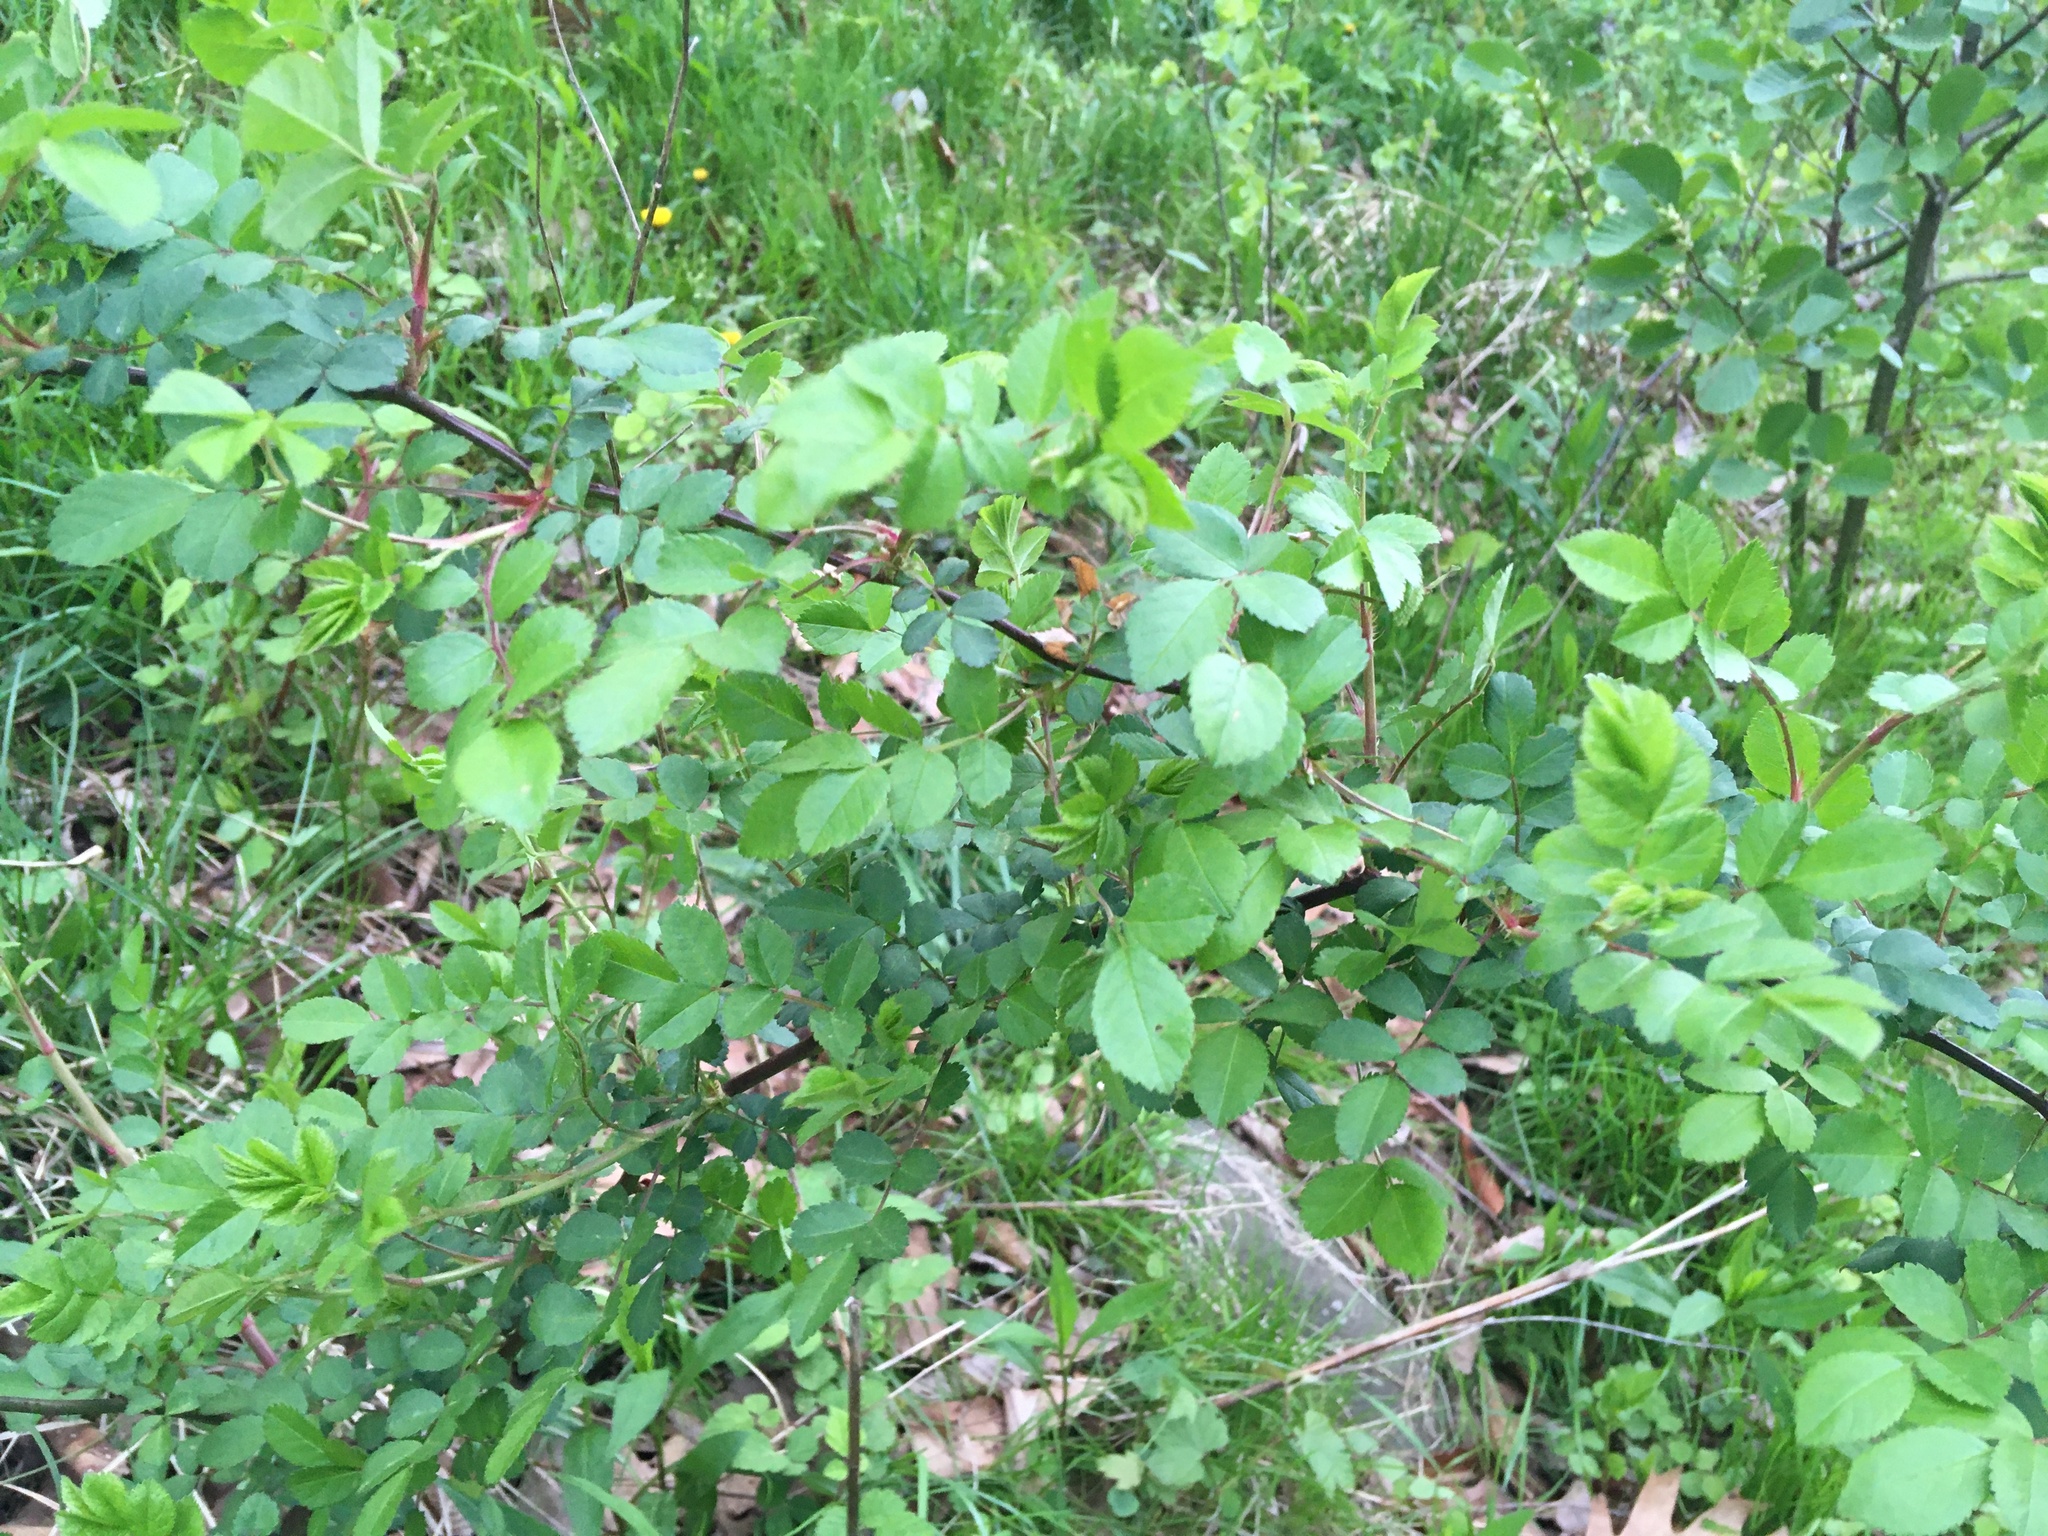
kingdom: Plantae
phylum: Tracheophyta
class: Magnoliopsida
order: Rosales
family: Rosaceae
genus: Rosa
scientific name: Rosa multiflora
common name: Multiflora rose
